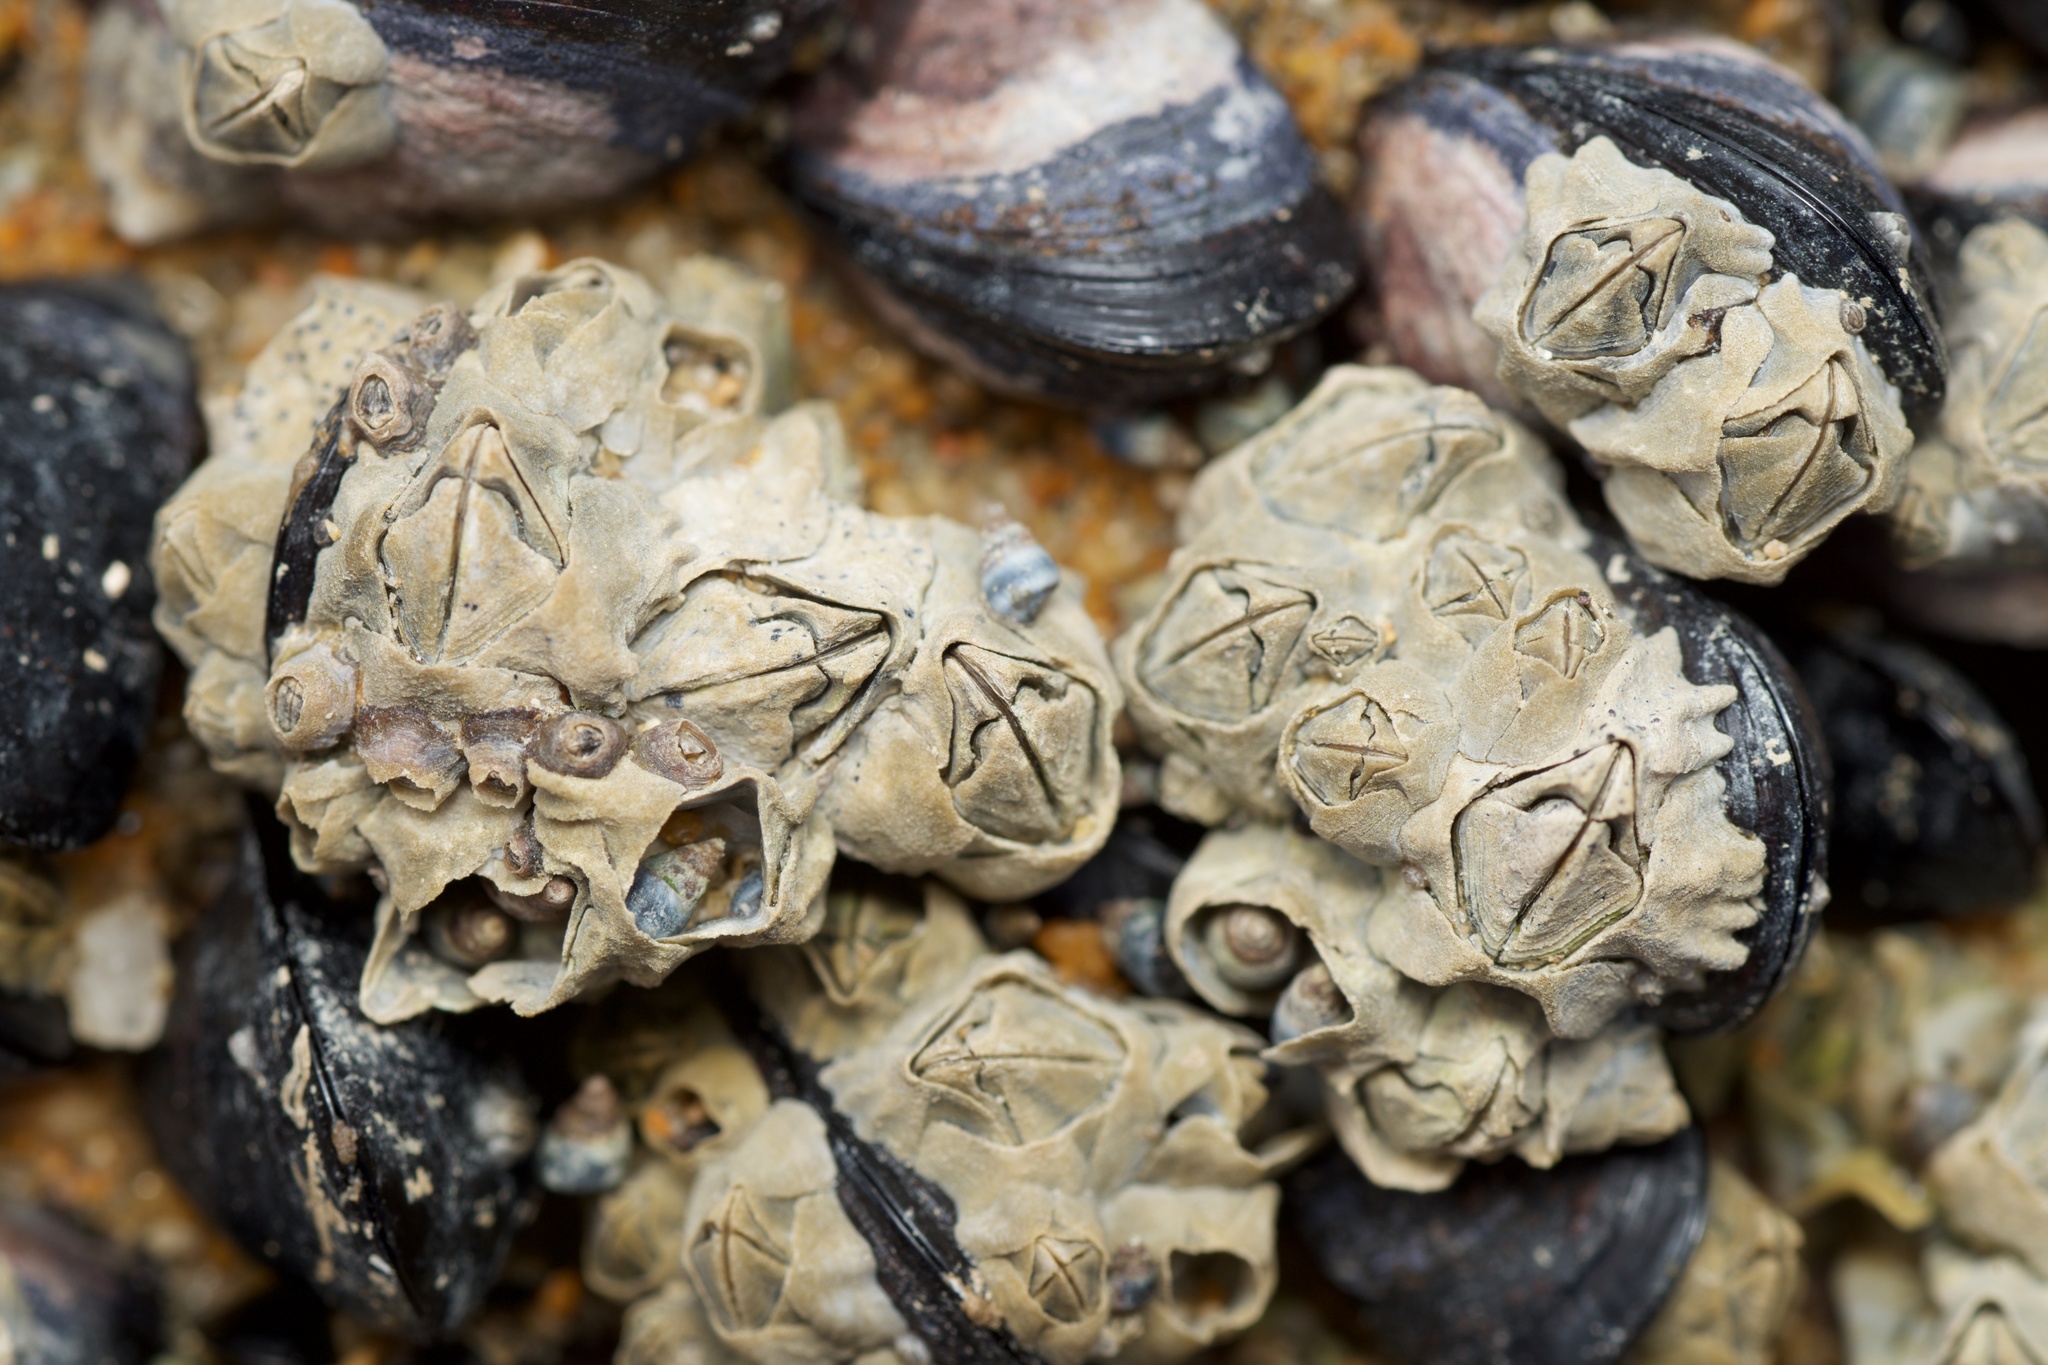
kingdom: Animalia
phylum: Arthropoda
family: Elminiidae
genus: Austrominius
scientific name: Austrominius modestus
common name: Australasian barnacle
